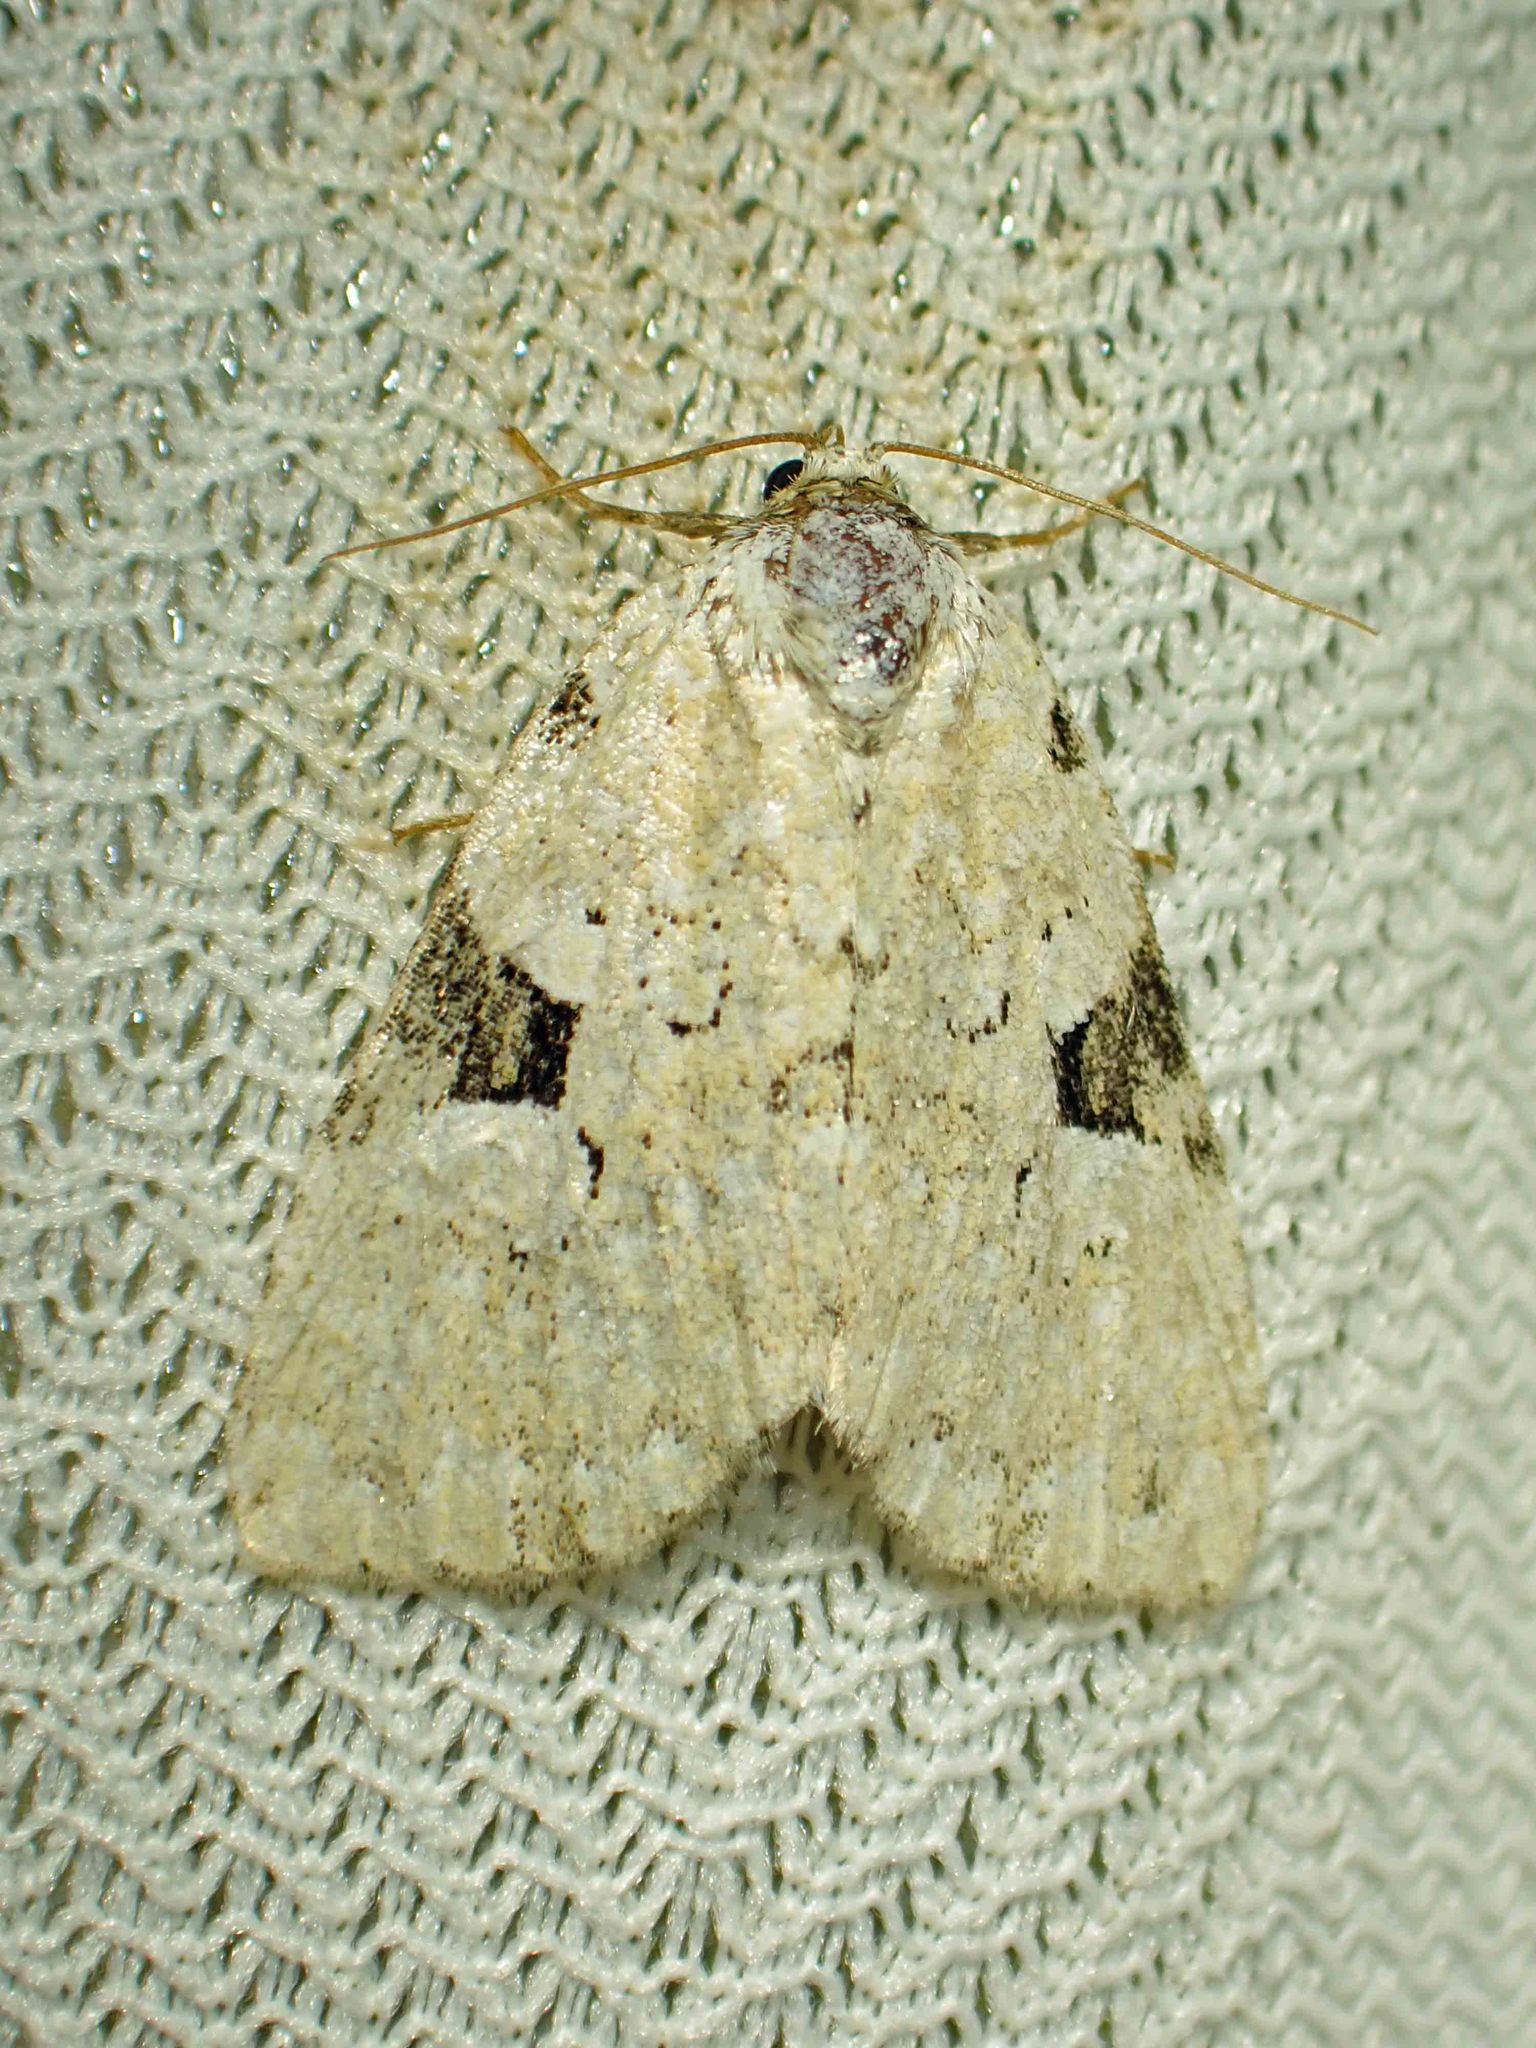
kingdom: Animalia
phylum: Arthropoda
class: Insecta
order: Lepidoptera
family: Noctuidae
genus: Leuconycta
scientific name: Leuconycta diphteroides
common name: Green leuconycta moth
